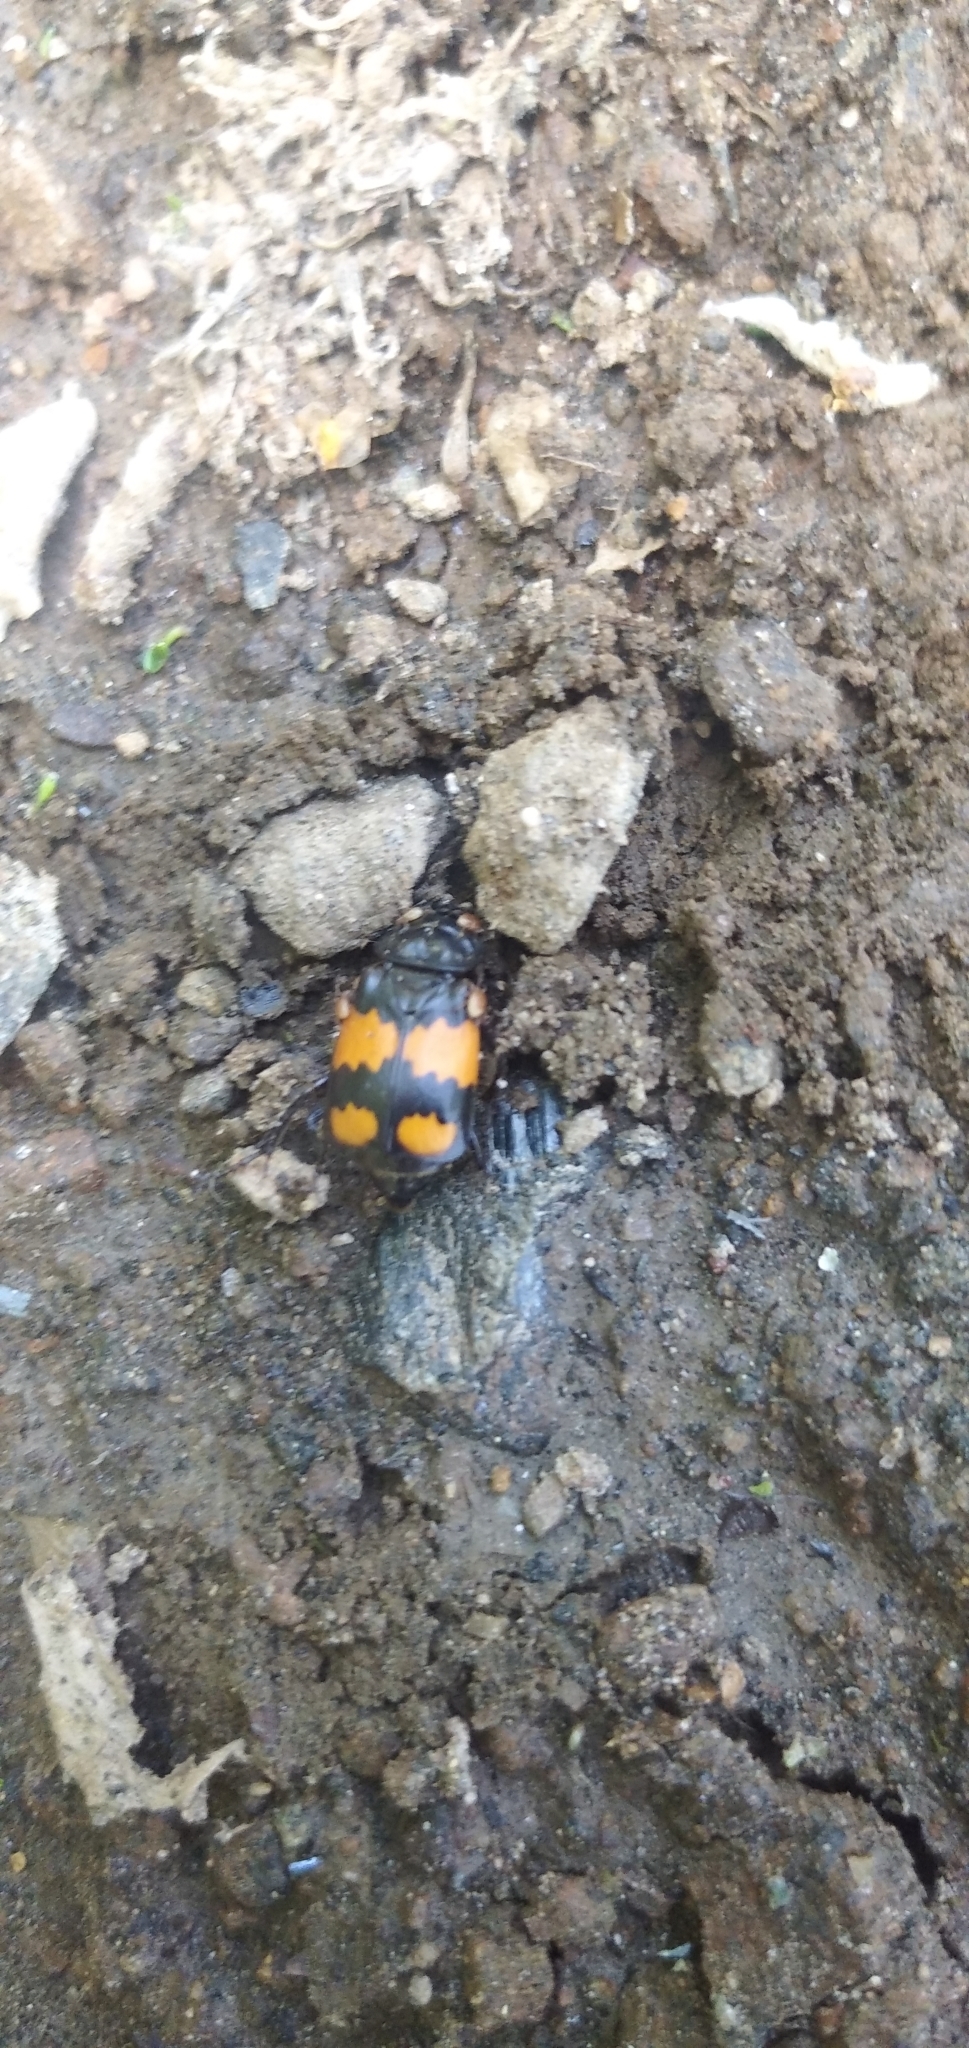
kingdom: Animalia
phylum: Arthropoda
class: Insecta
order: Coleoptera
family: Staphylinidae
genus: Nicrophorus
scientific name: Nicrophorus vespilloides
